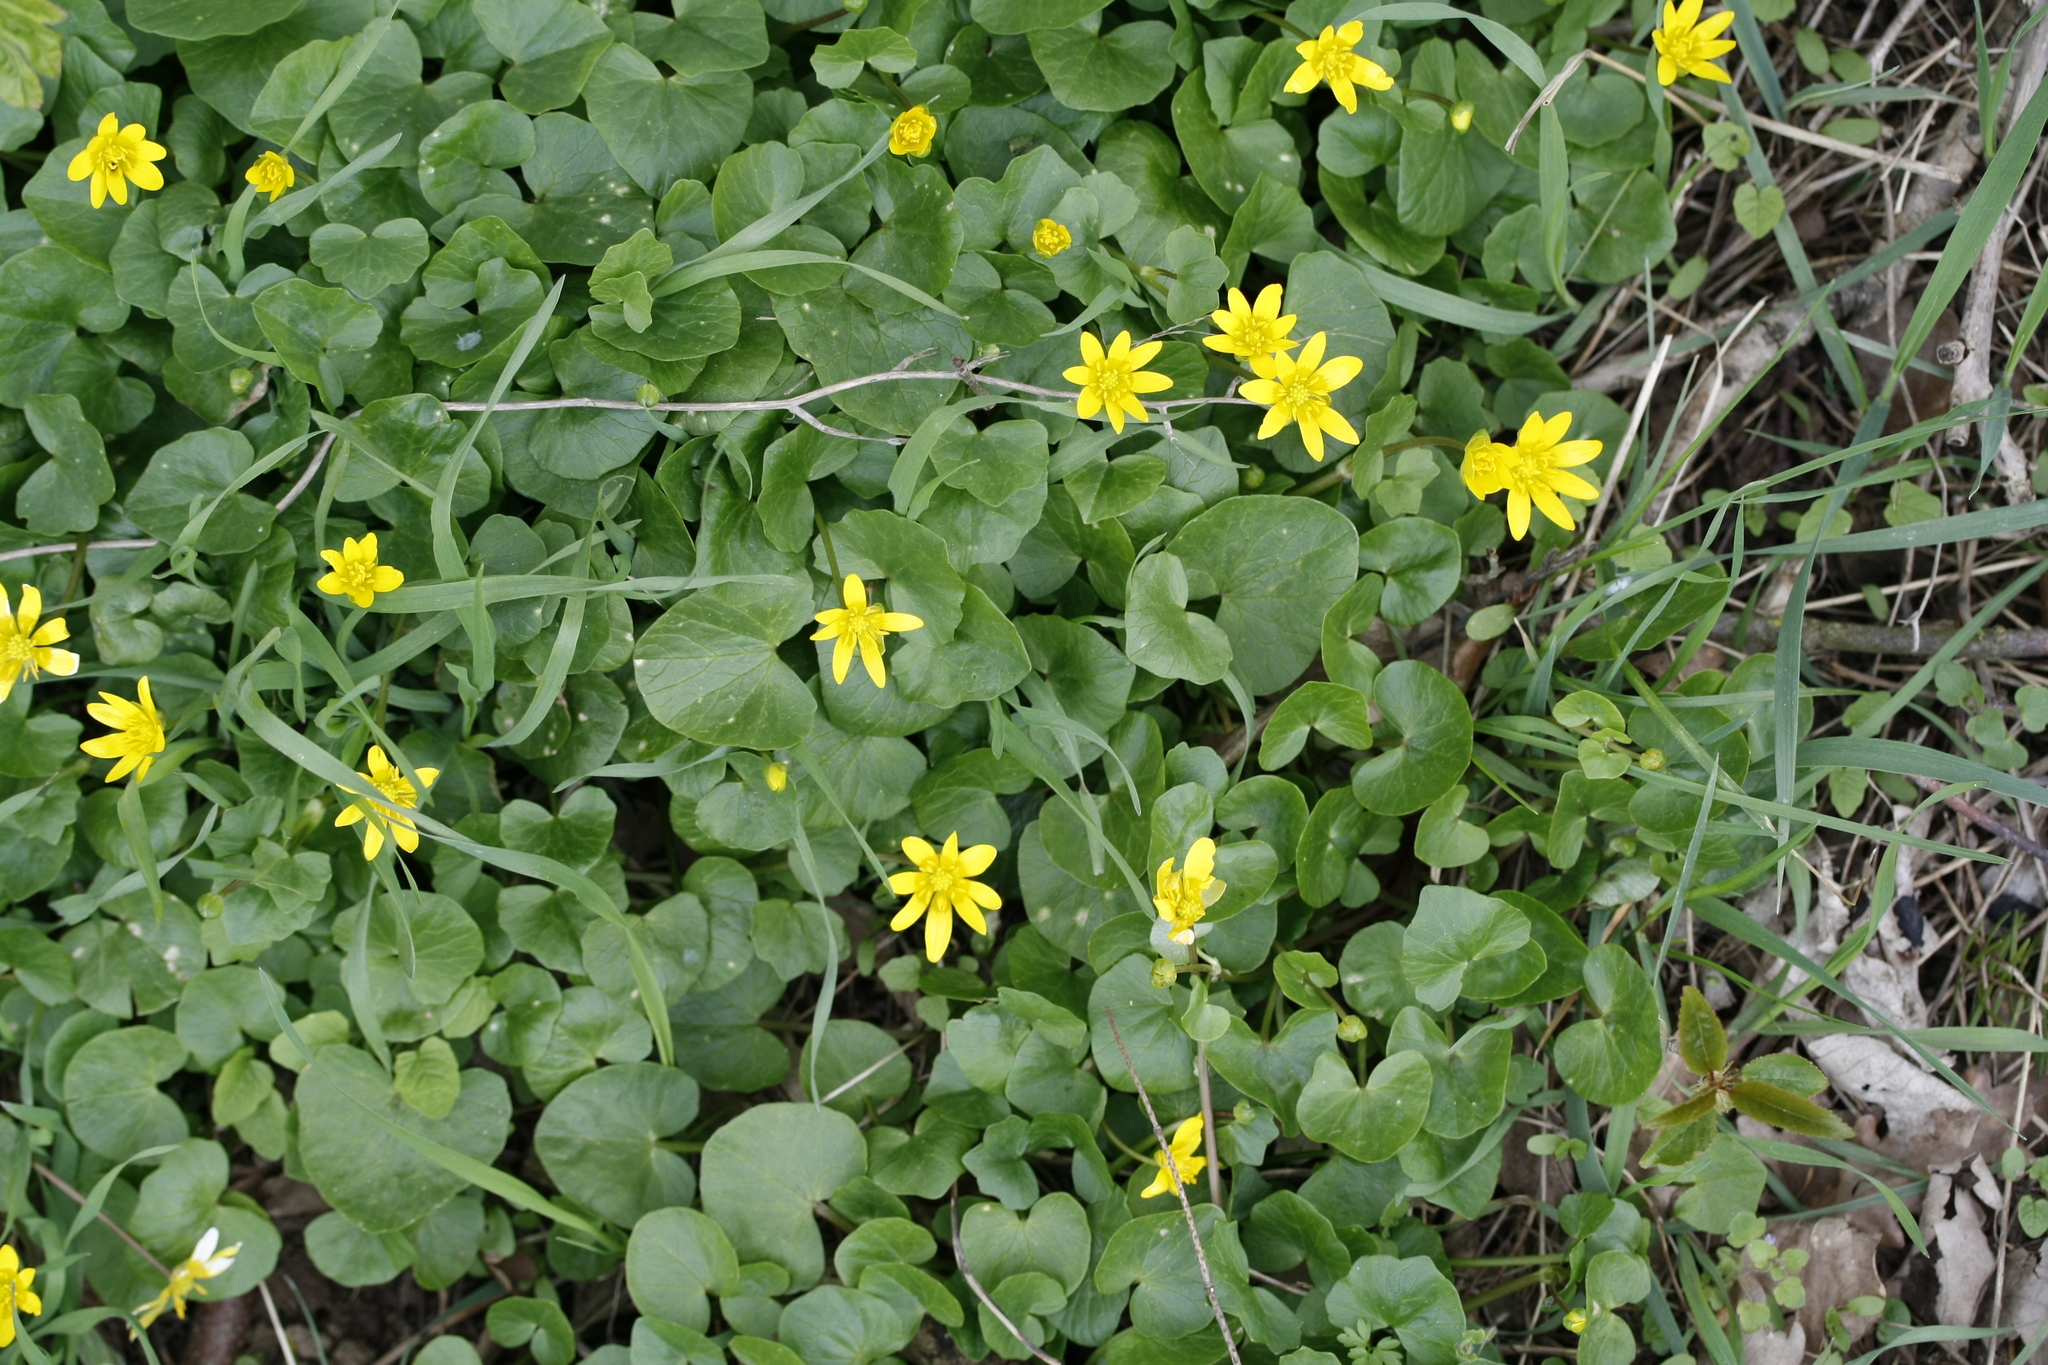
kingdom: Plantae
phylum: Tracheophyta
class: Magnoliopsida
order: Ranunculales
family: Ranunculaceae
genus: Ficaria
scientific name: Ficaria verna
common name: Lesser celandine
